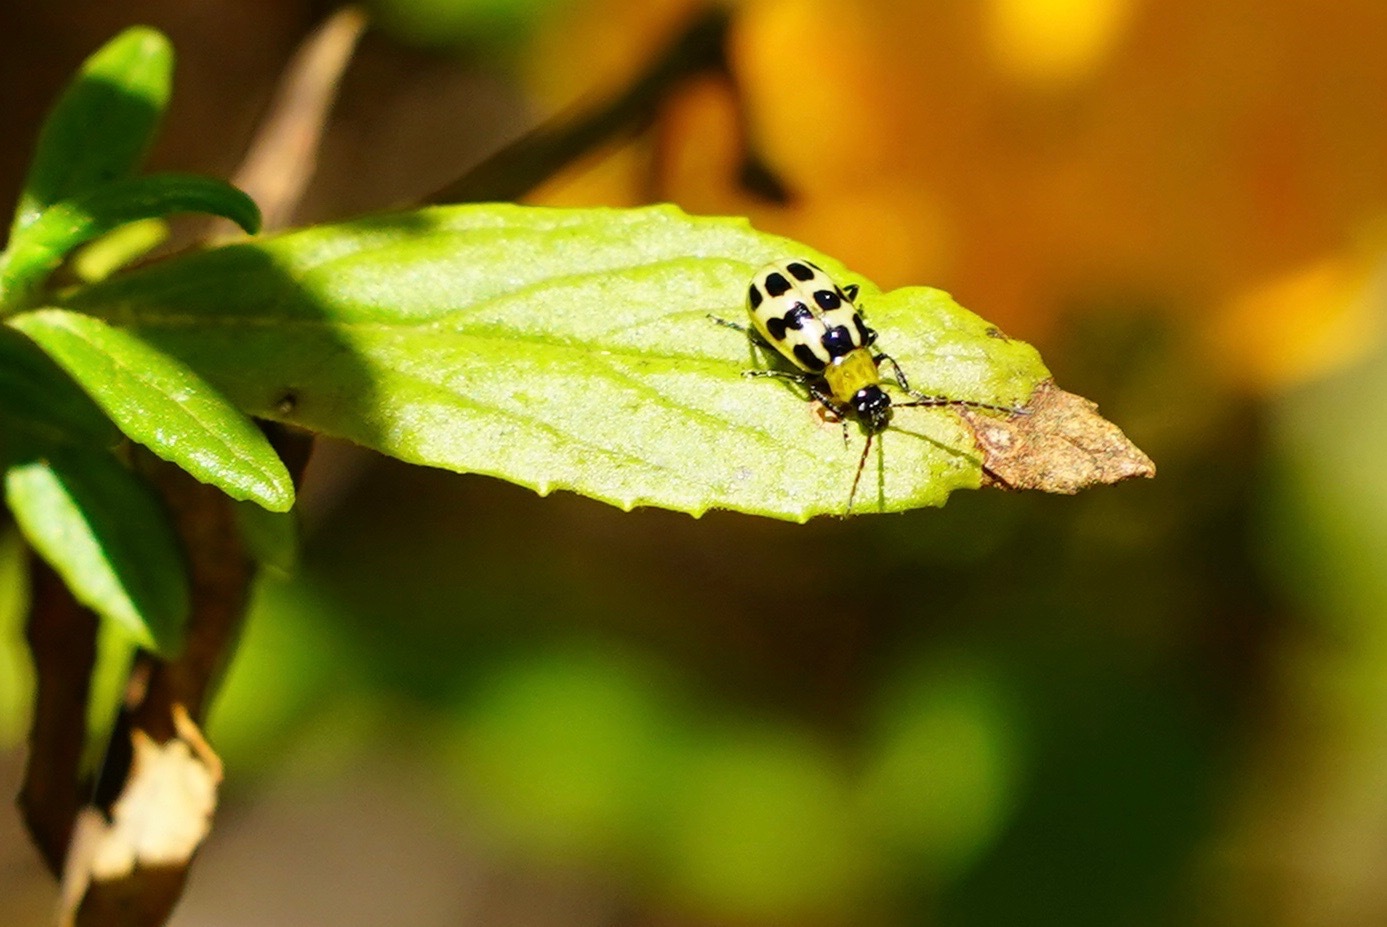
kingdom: Animalia
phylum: Arthropoda
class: Insecta
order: Coleoptera
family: Chrysomelidae
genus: Diabrotica
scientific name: Diabrotica undecimpunctata
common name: Spotted cucumber beetle
